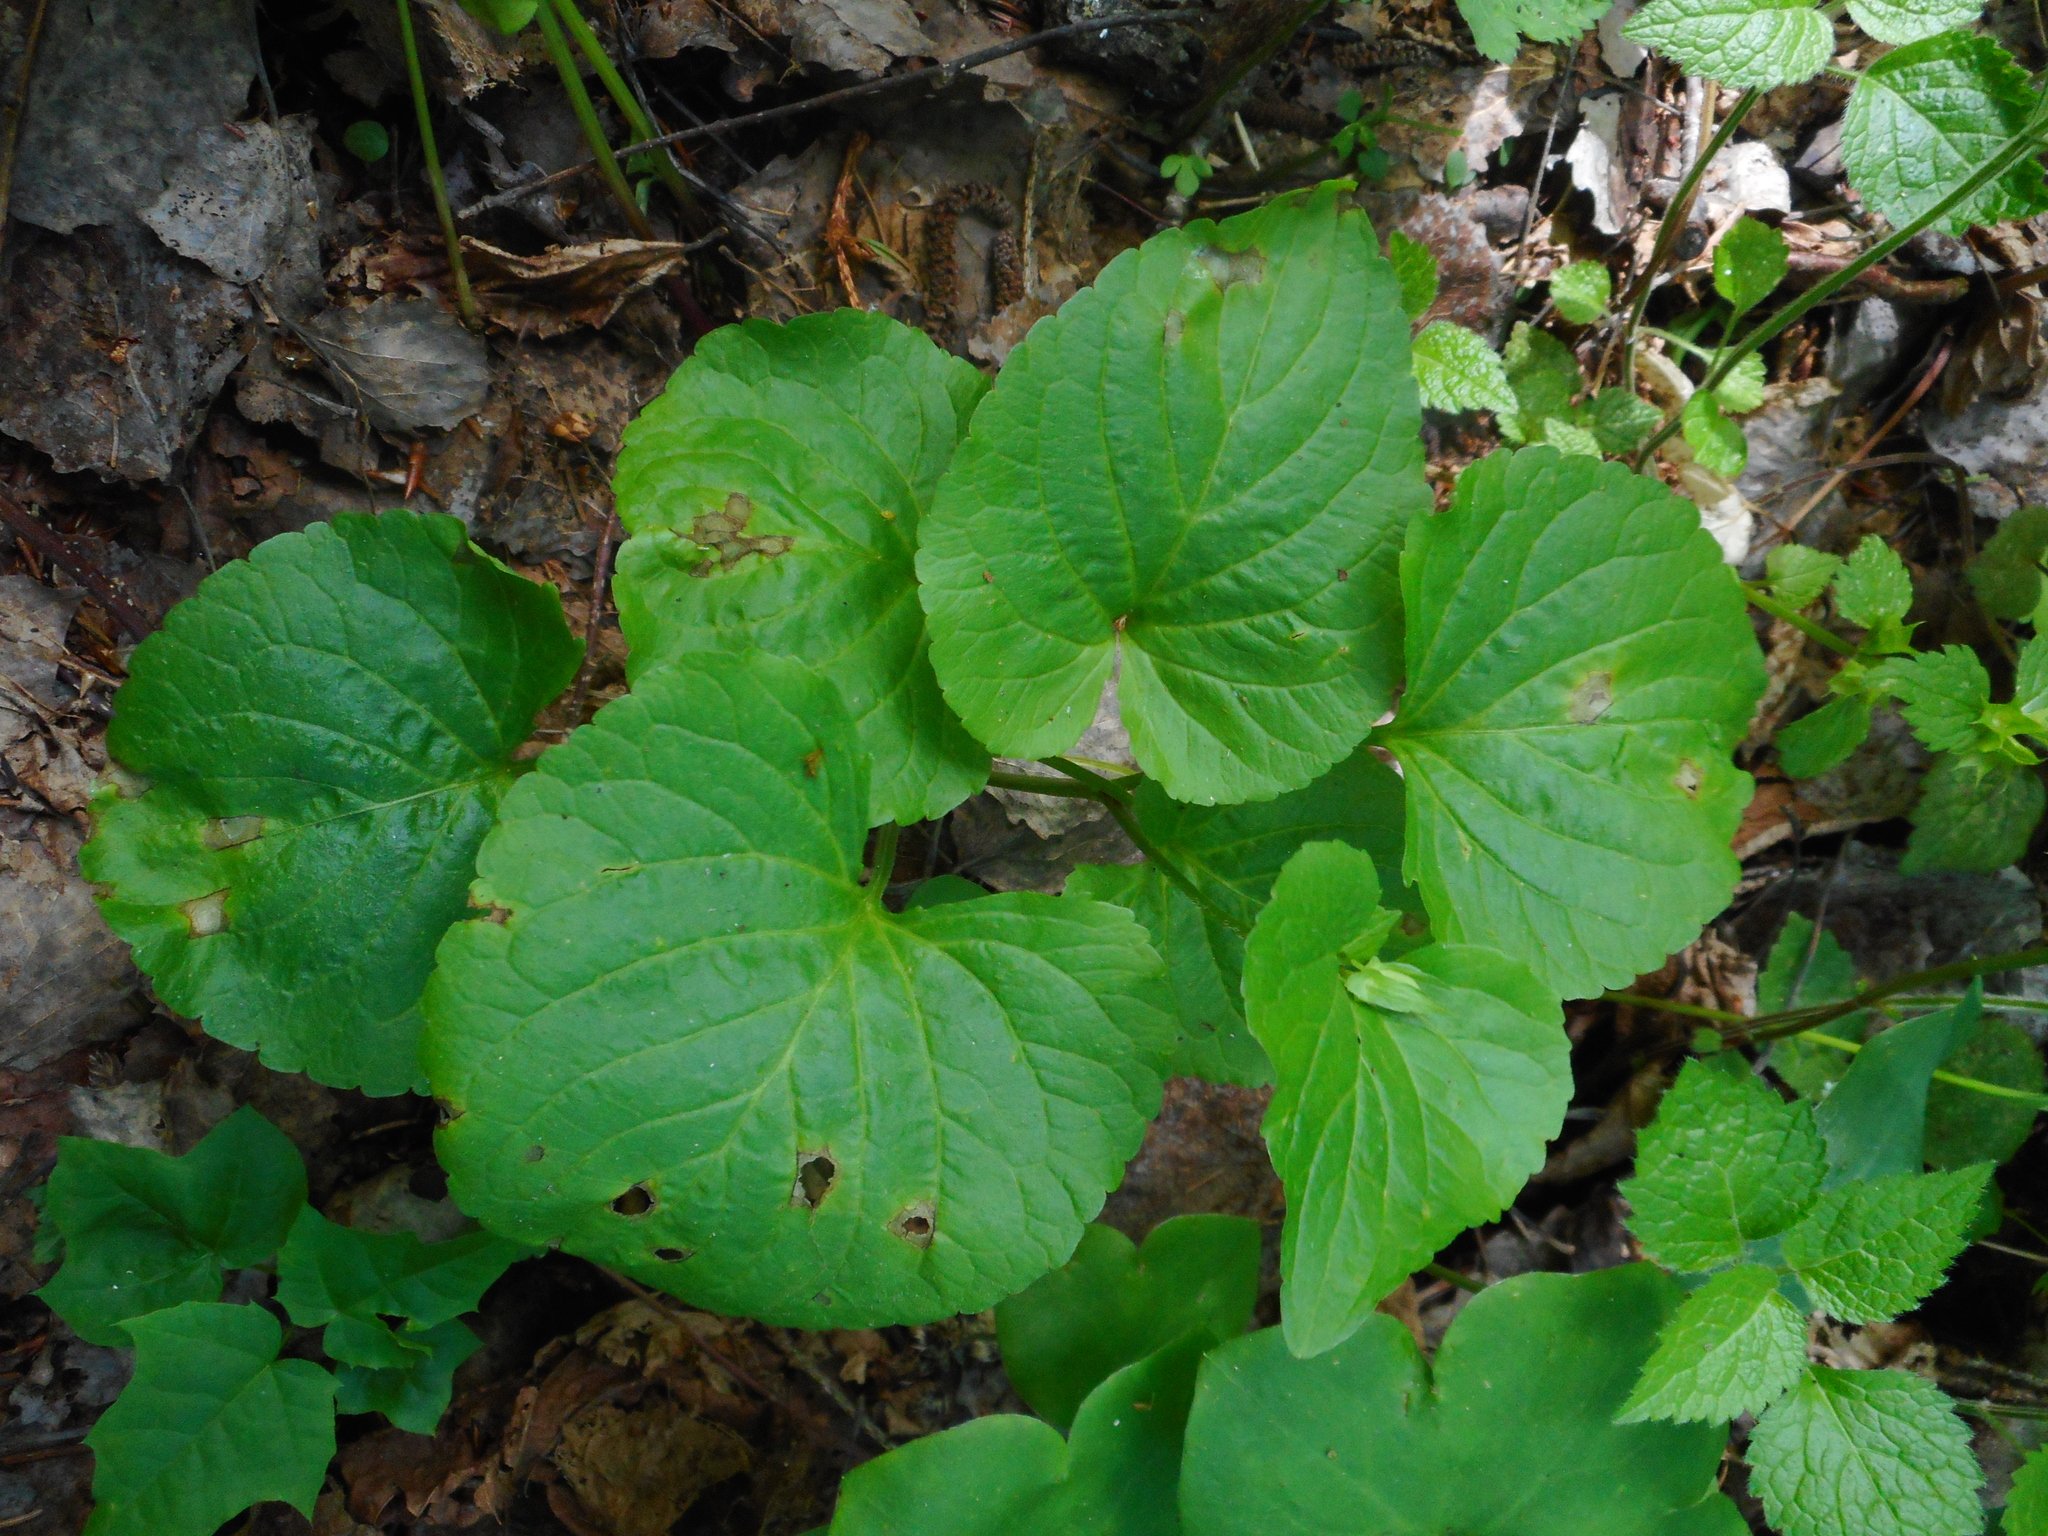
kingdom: Plantae
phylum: Tracheophyta
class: Magnoliopsida
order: Malpighiales
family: Violaceae
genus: Viola
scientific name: Viola mirabilis
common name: Wonder violet
